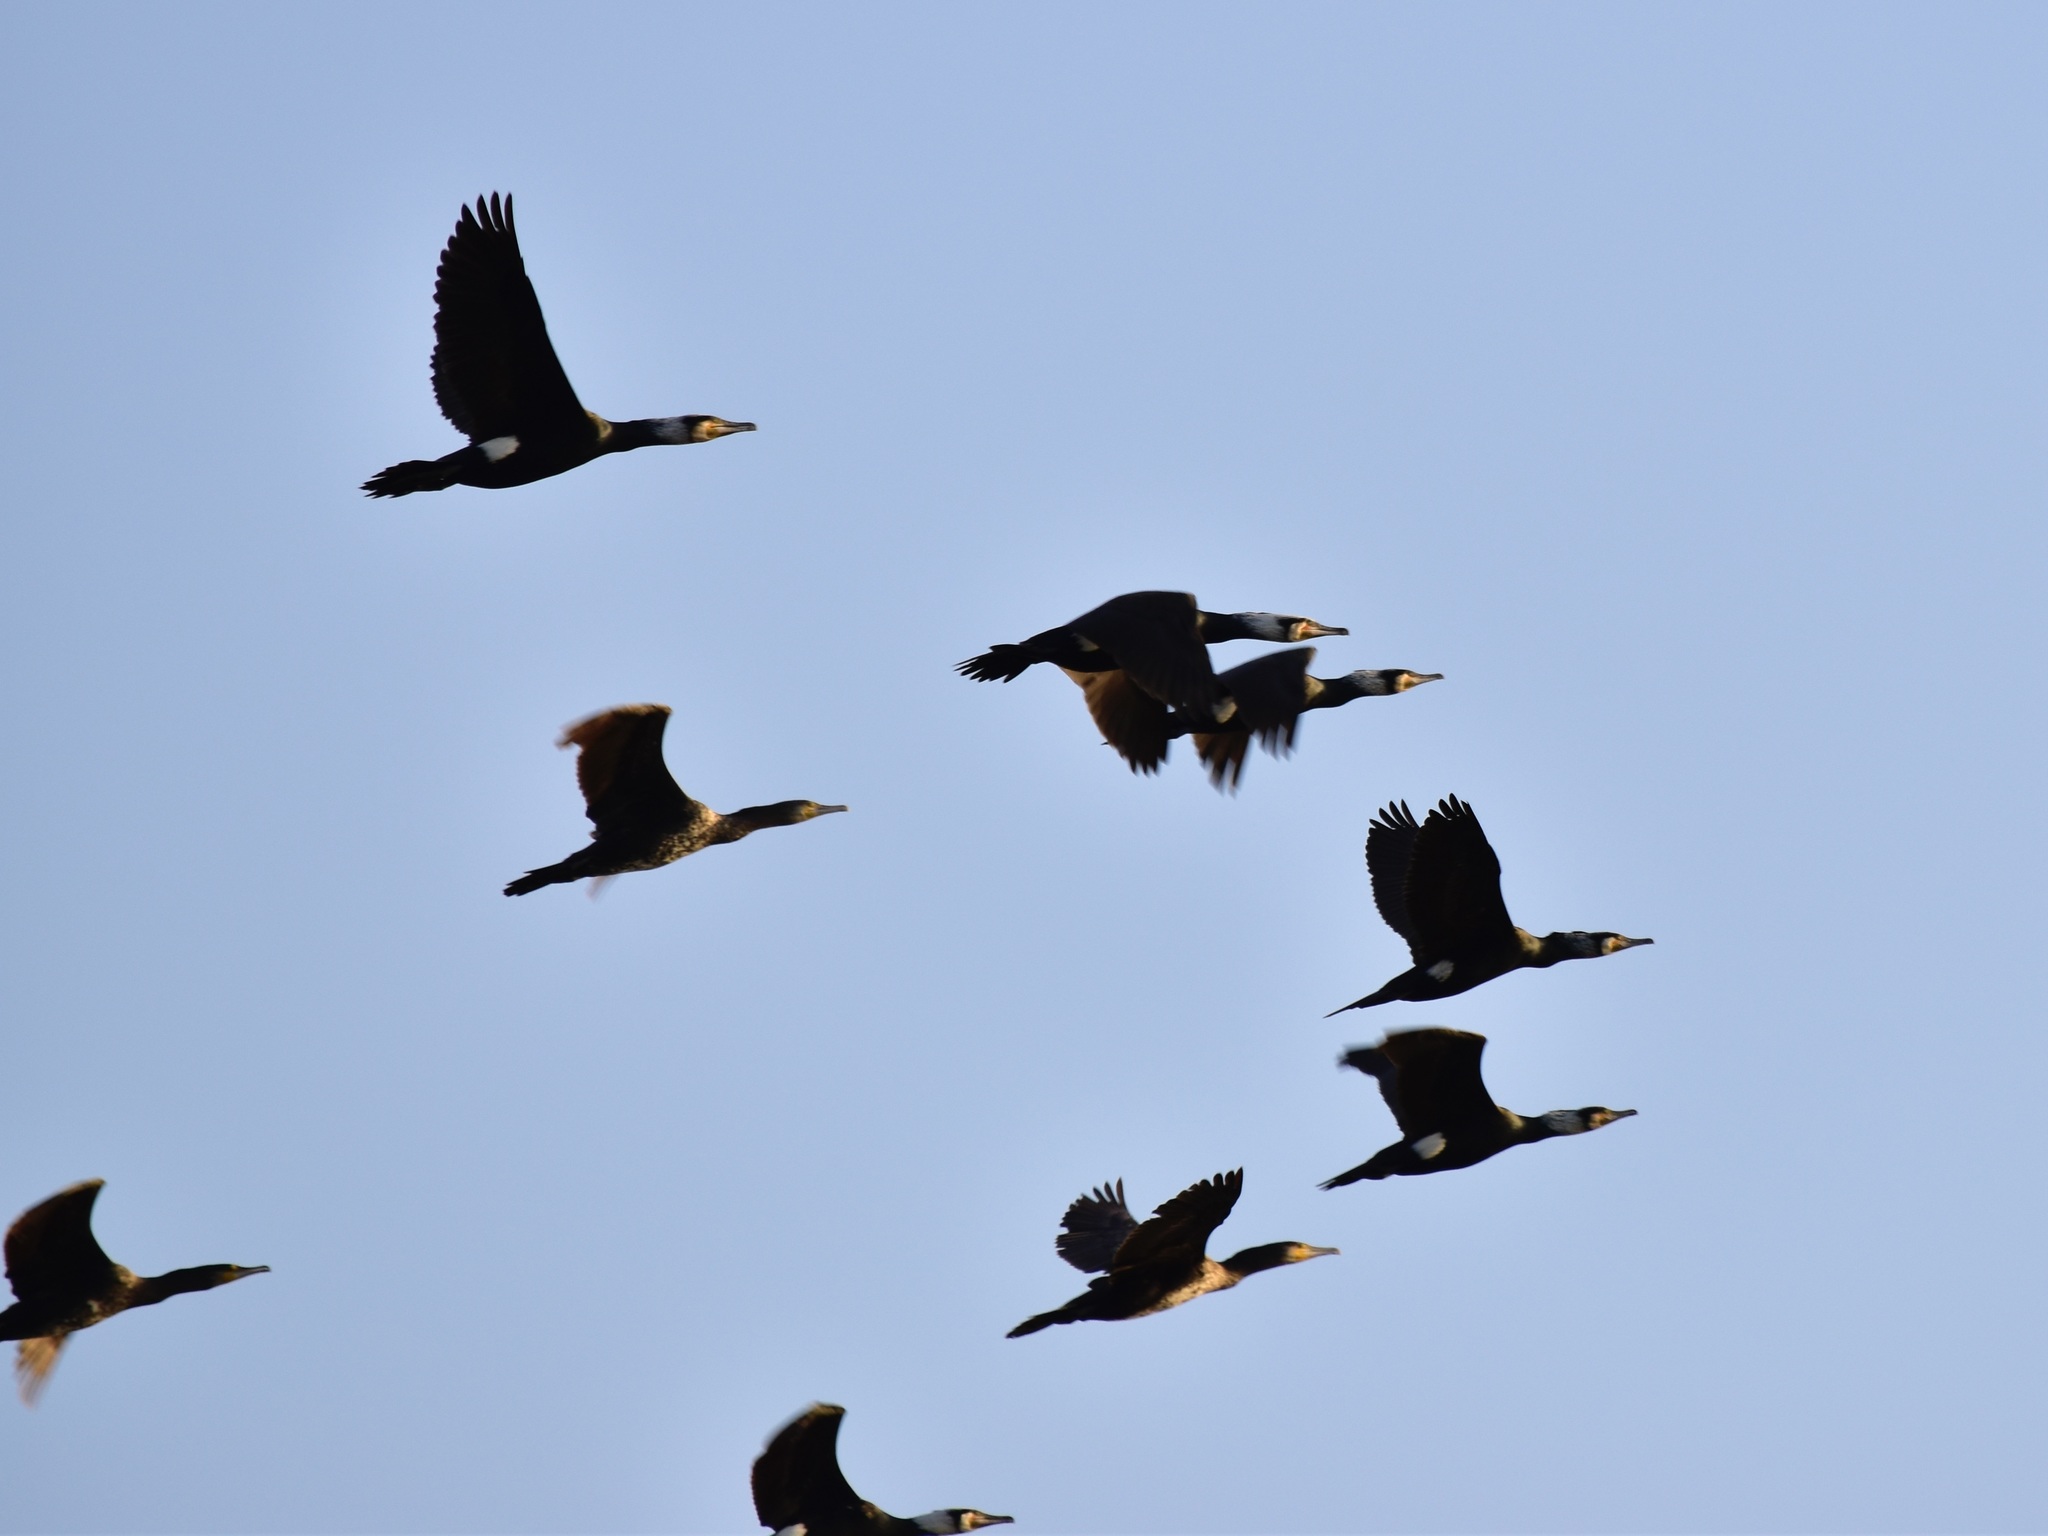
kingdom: Animalia
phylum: Chordata
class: Aves
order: Suliformes
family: Phalacrocoracidae
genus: Phalacrocorax
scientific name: Phalacrocorax carbo
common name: Great cormorant
